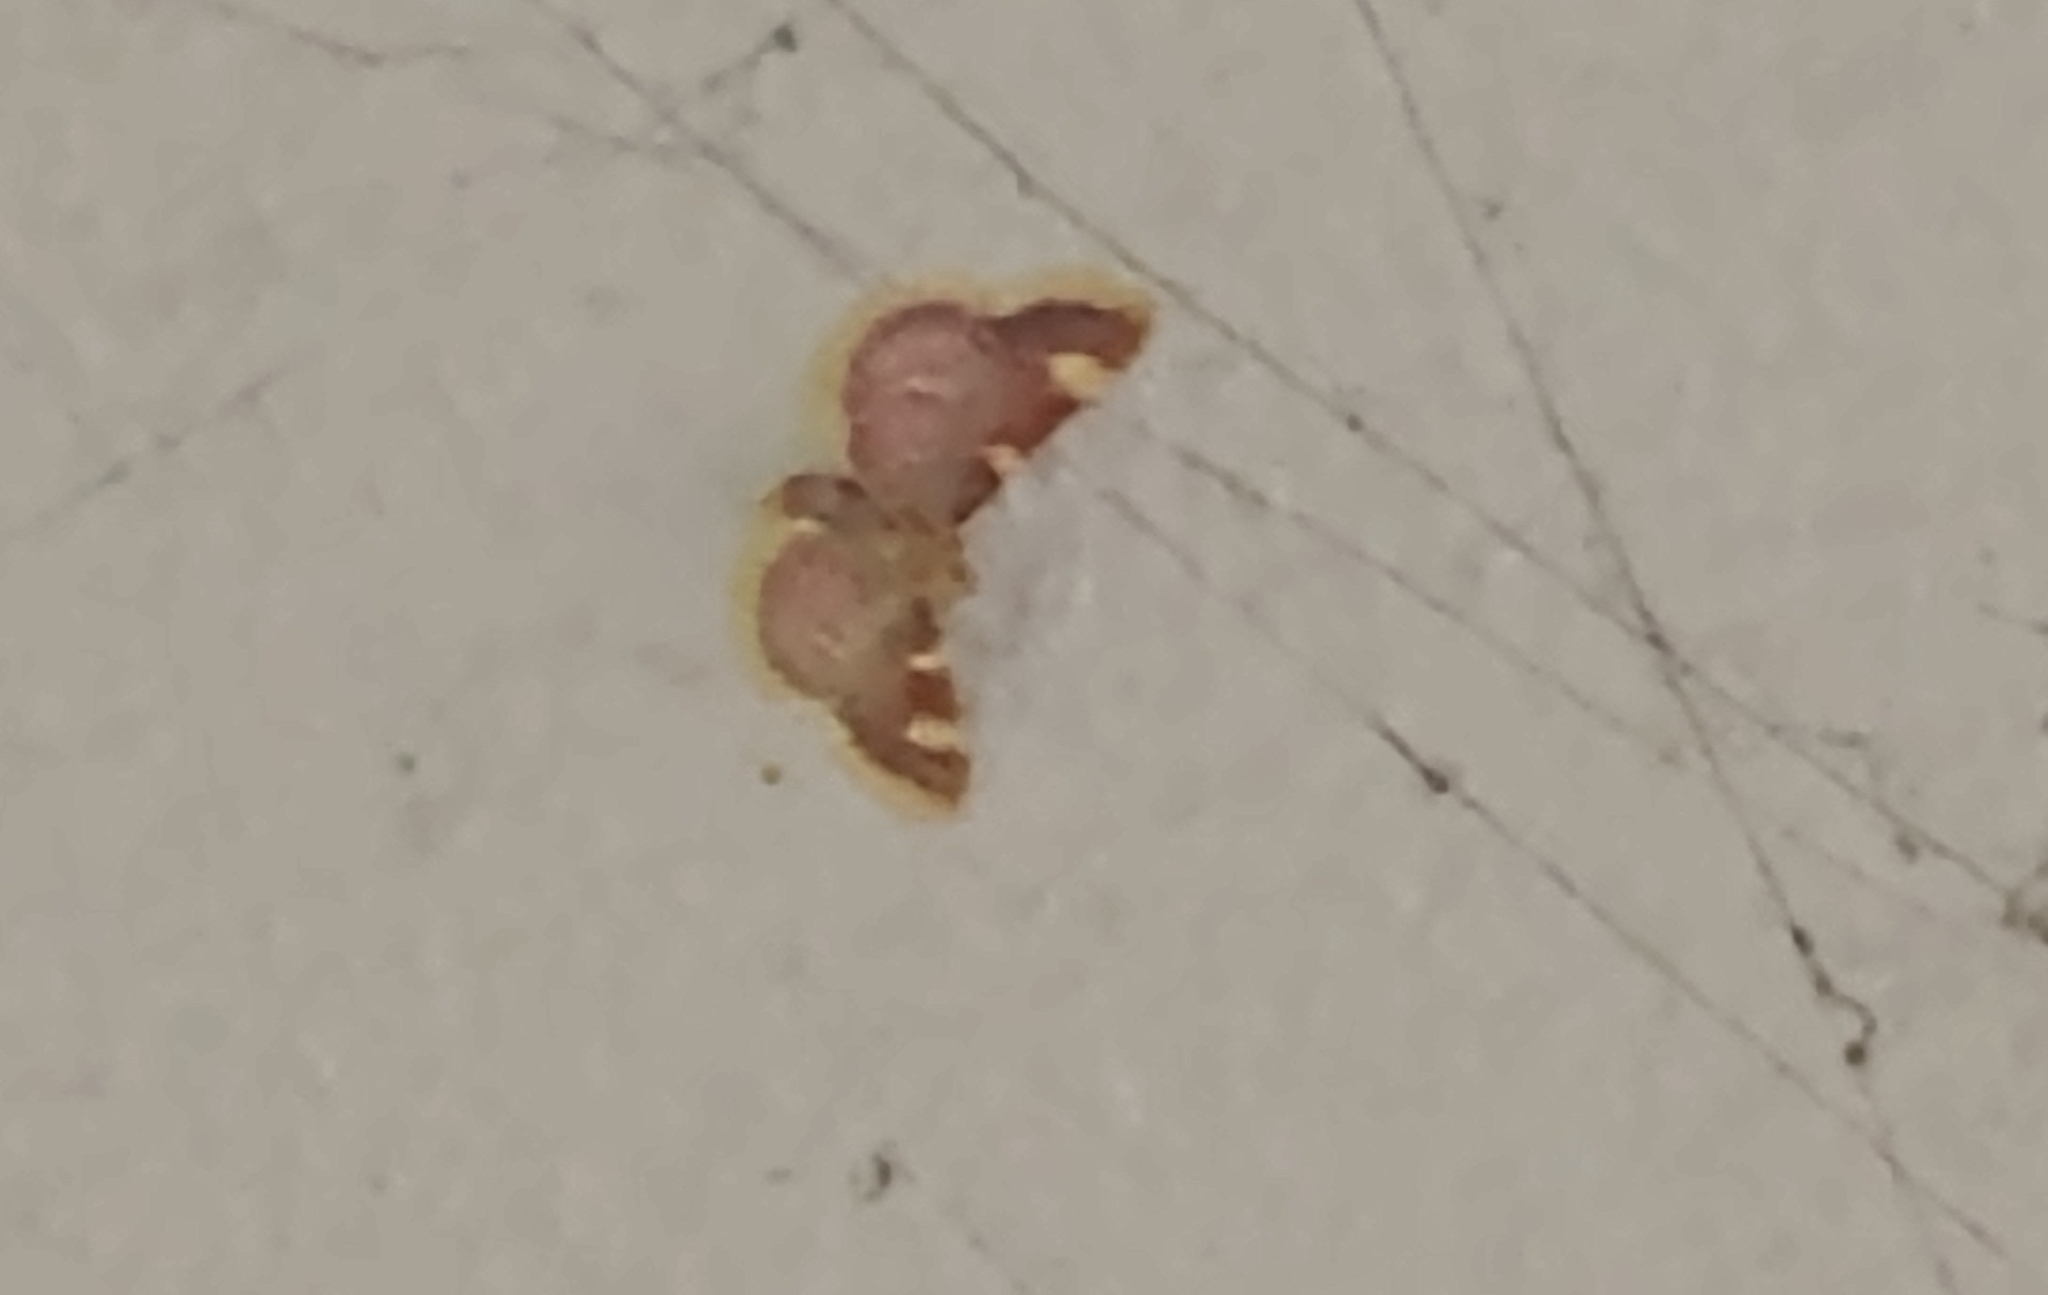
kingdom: Animalia
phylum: Arthropoda
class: Insecta
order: Lepidoptera
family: Pyralidae
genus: Hypsopygia
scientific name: Hypsopygia costalis
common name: Gold triangle
